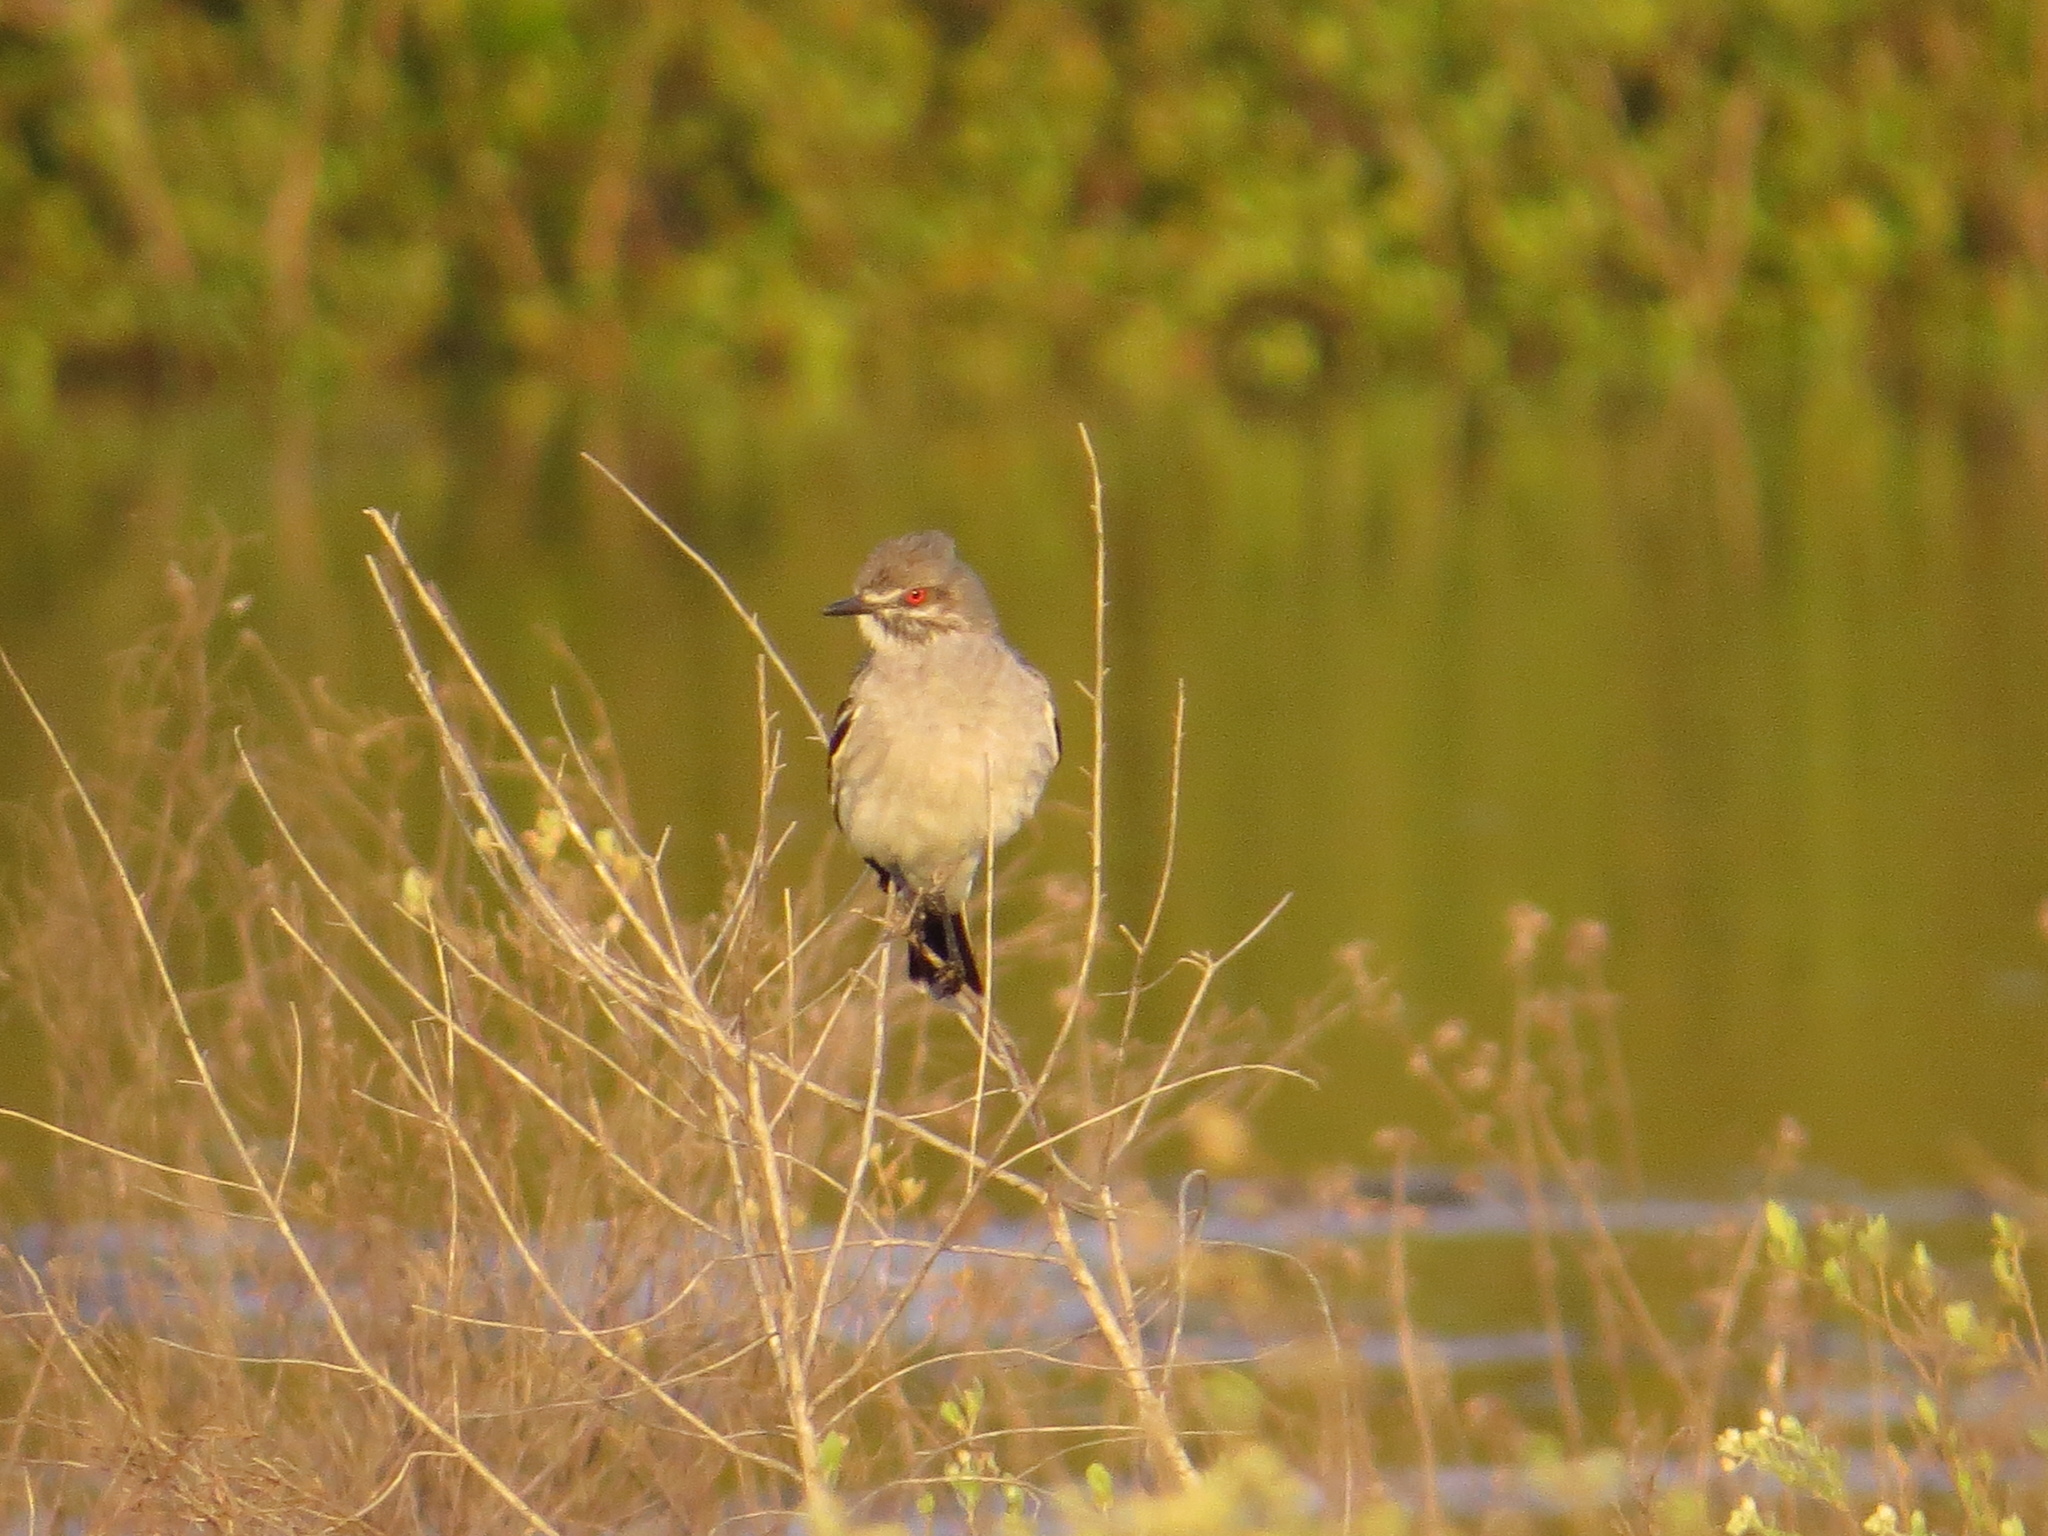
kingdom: Animalia
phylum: Chordata
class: Aves
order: Passeriformes
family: Tyrannidae
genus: Xolmis
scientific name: Xolmis cinereus
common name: Grey monjita
